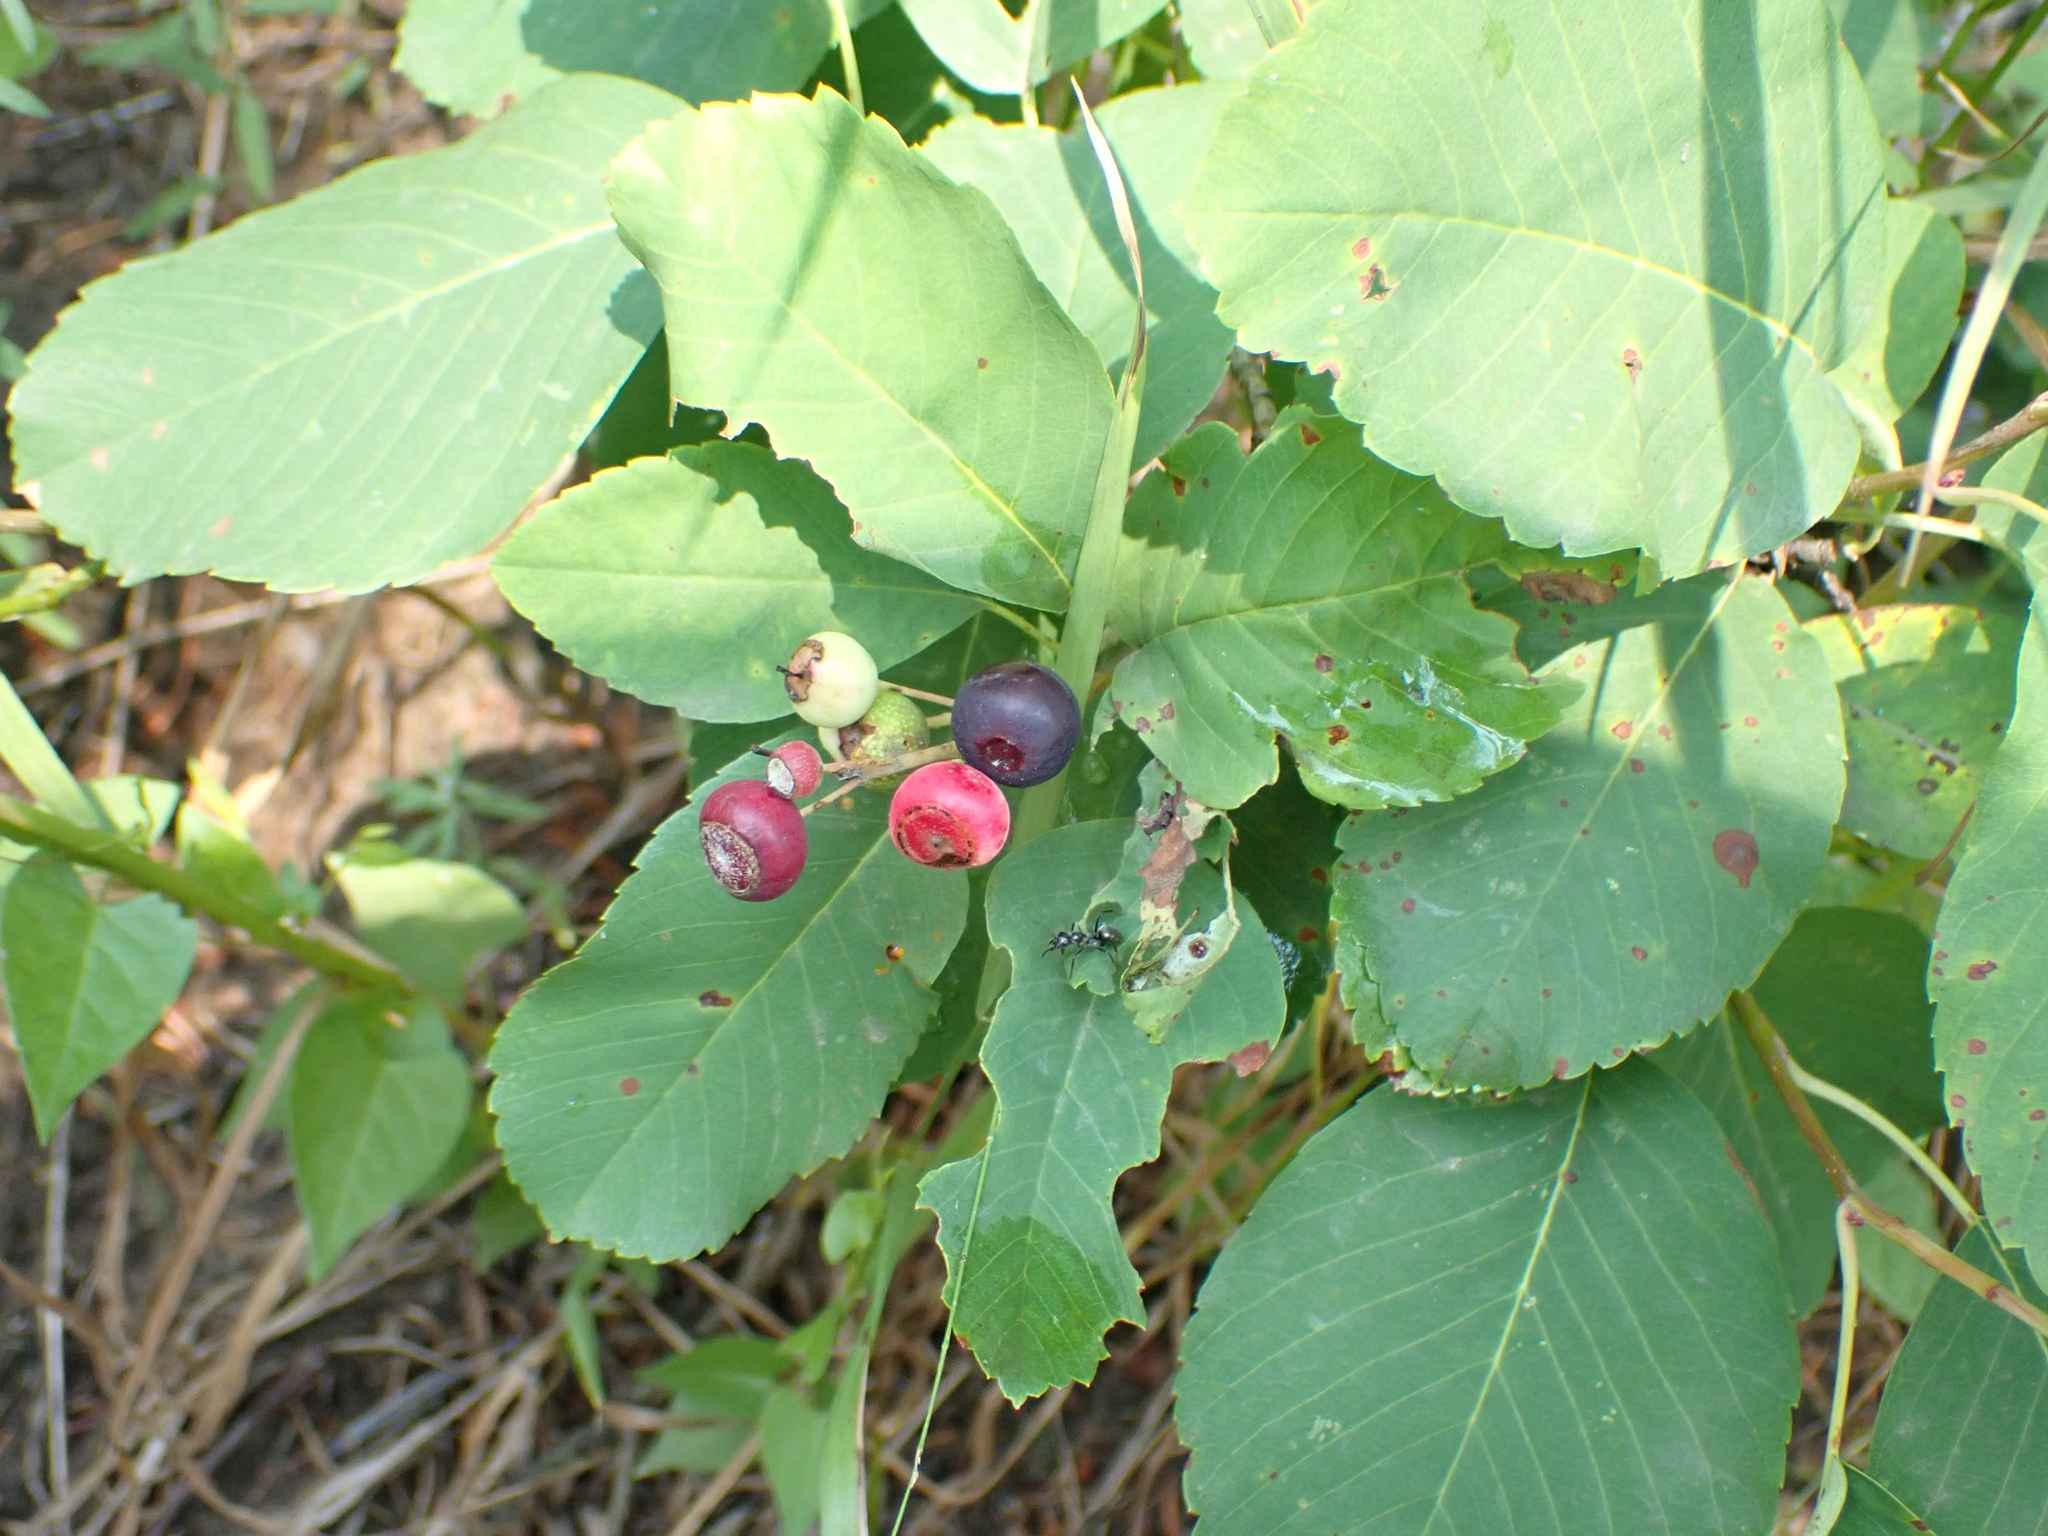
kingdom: Plantae
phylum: Tracheophyta
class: Magnoliopsida
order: Rosales
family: Rosaceae
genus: Amelanchier
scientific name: Amelanchier alnifolia
